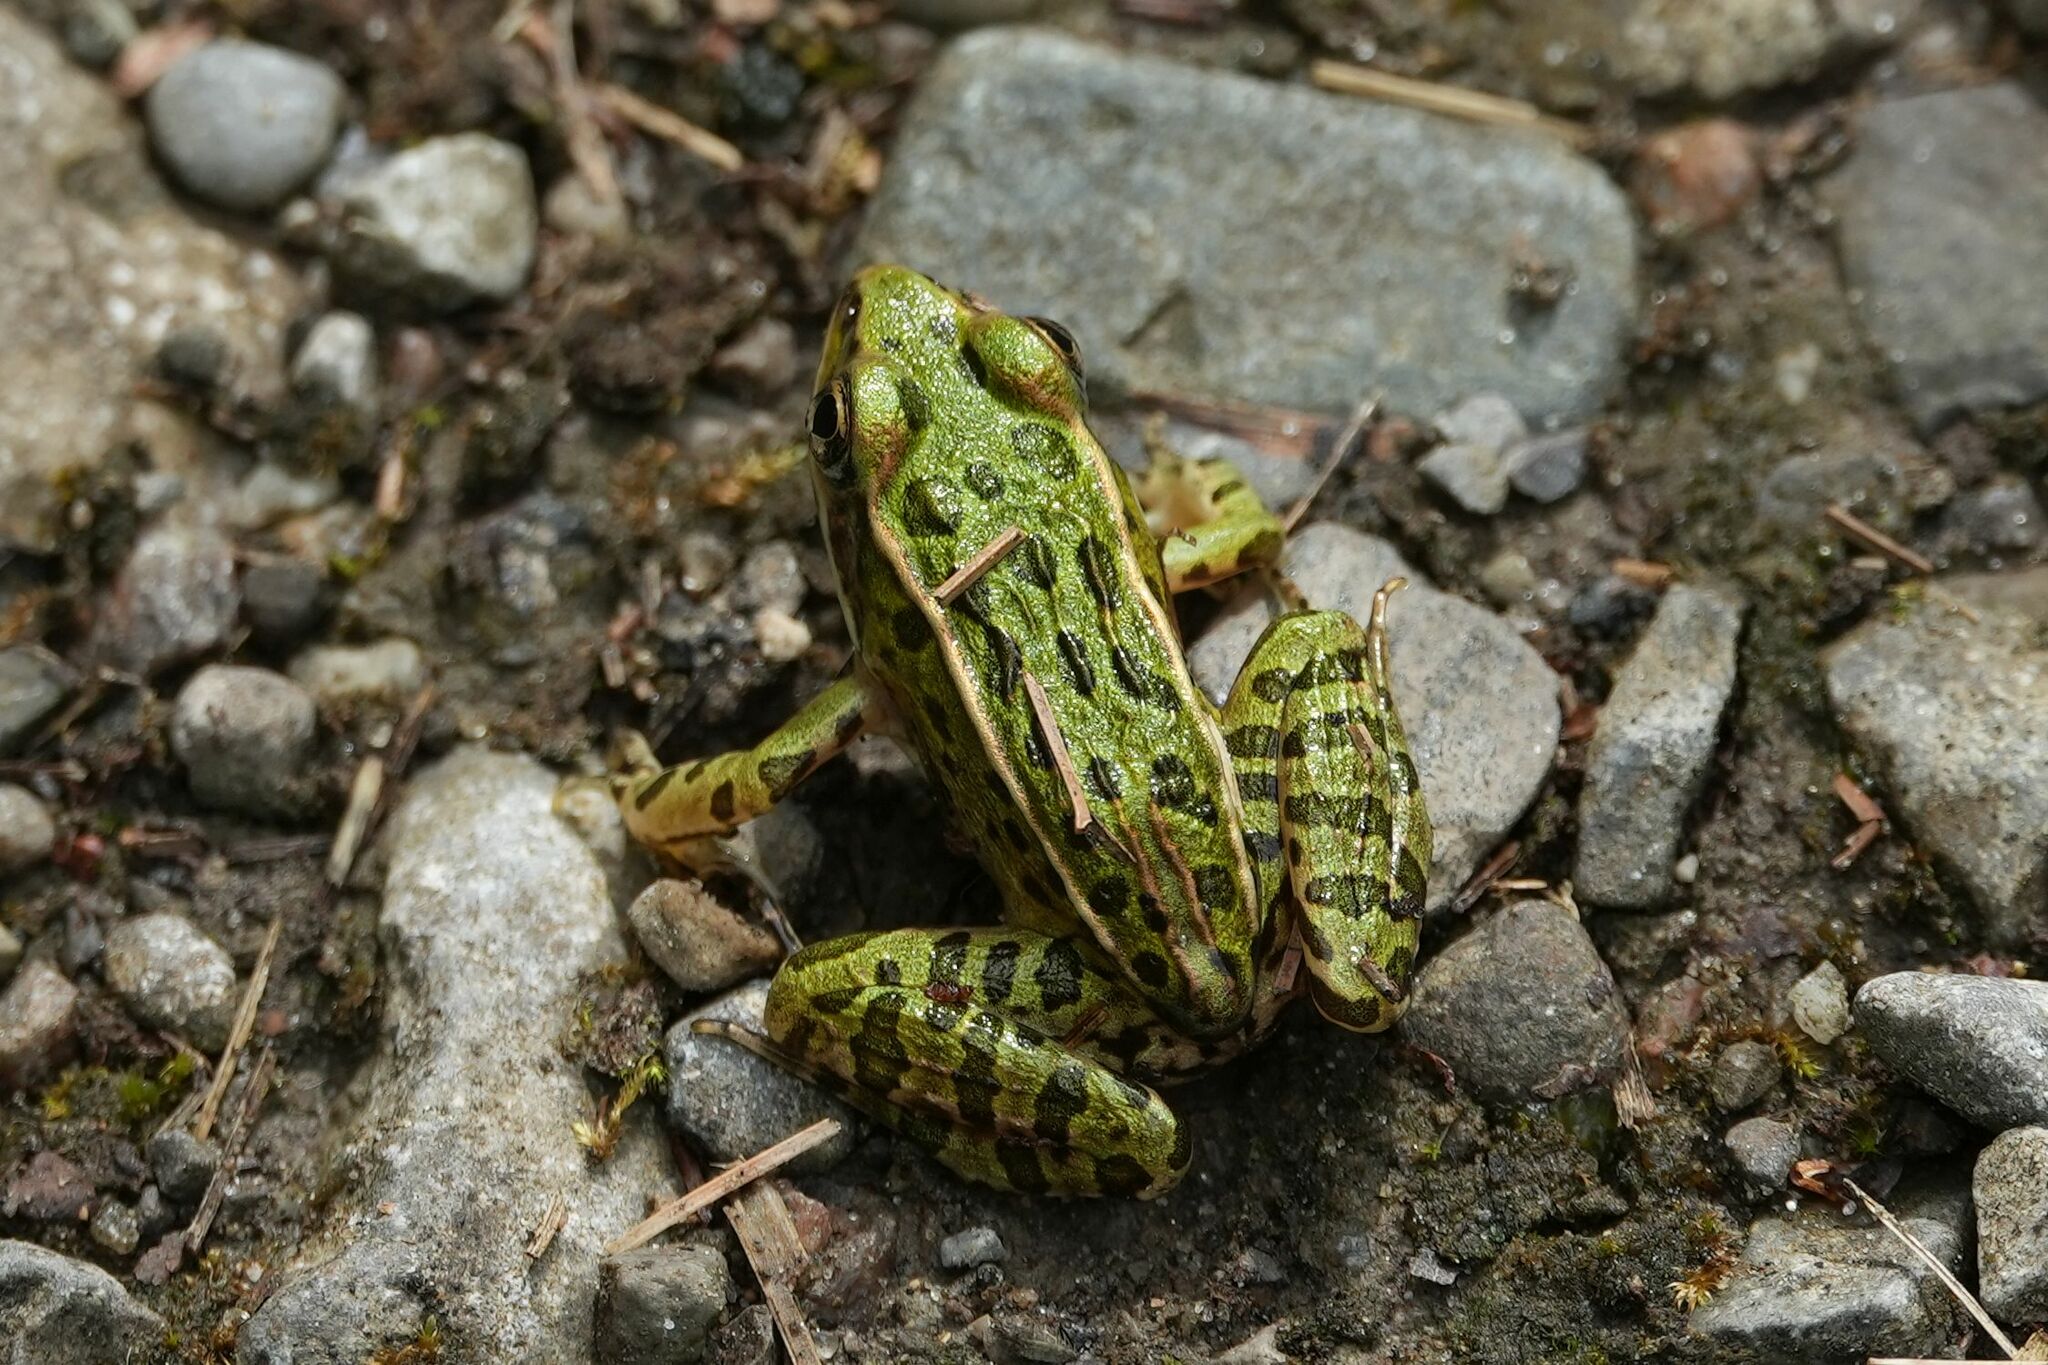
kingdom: Animalia
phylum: Chordata
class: Amphibia
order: Anura
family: Ranidae
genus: Lithobates
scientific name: Lithobates pipiens
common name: Northern leopard frog
